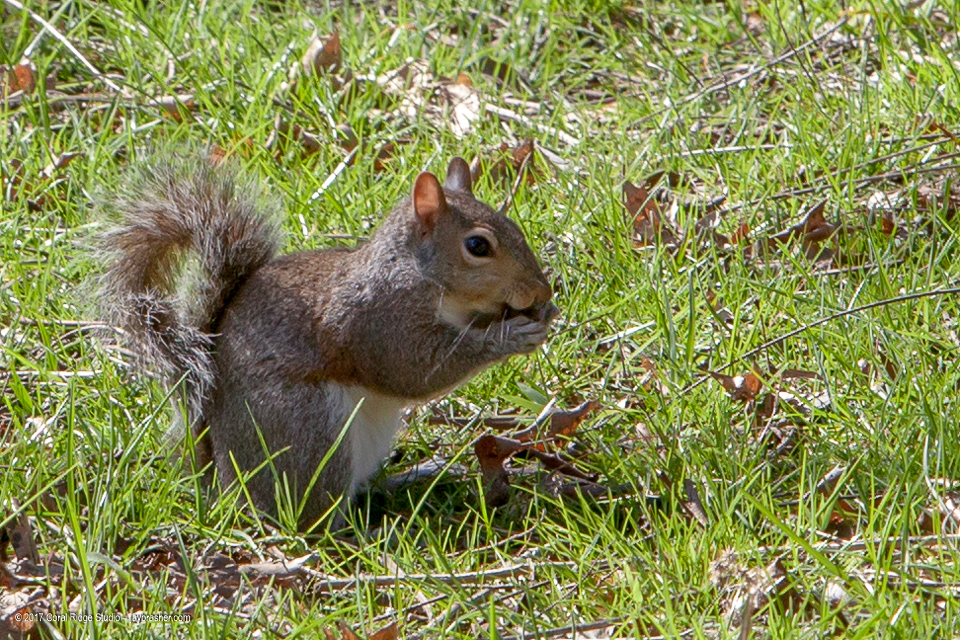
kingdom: Animalia
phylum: Chordata
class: Mammalia
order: Rodentia
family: Sciuridae
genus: Sciurus
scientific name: Sciurus carolinensis
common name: Eastern gray squirrel
